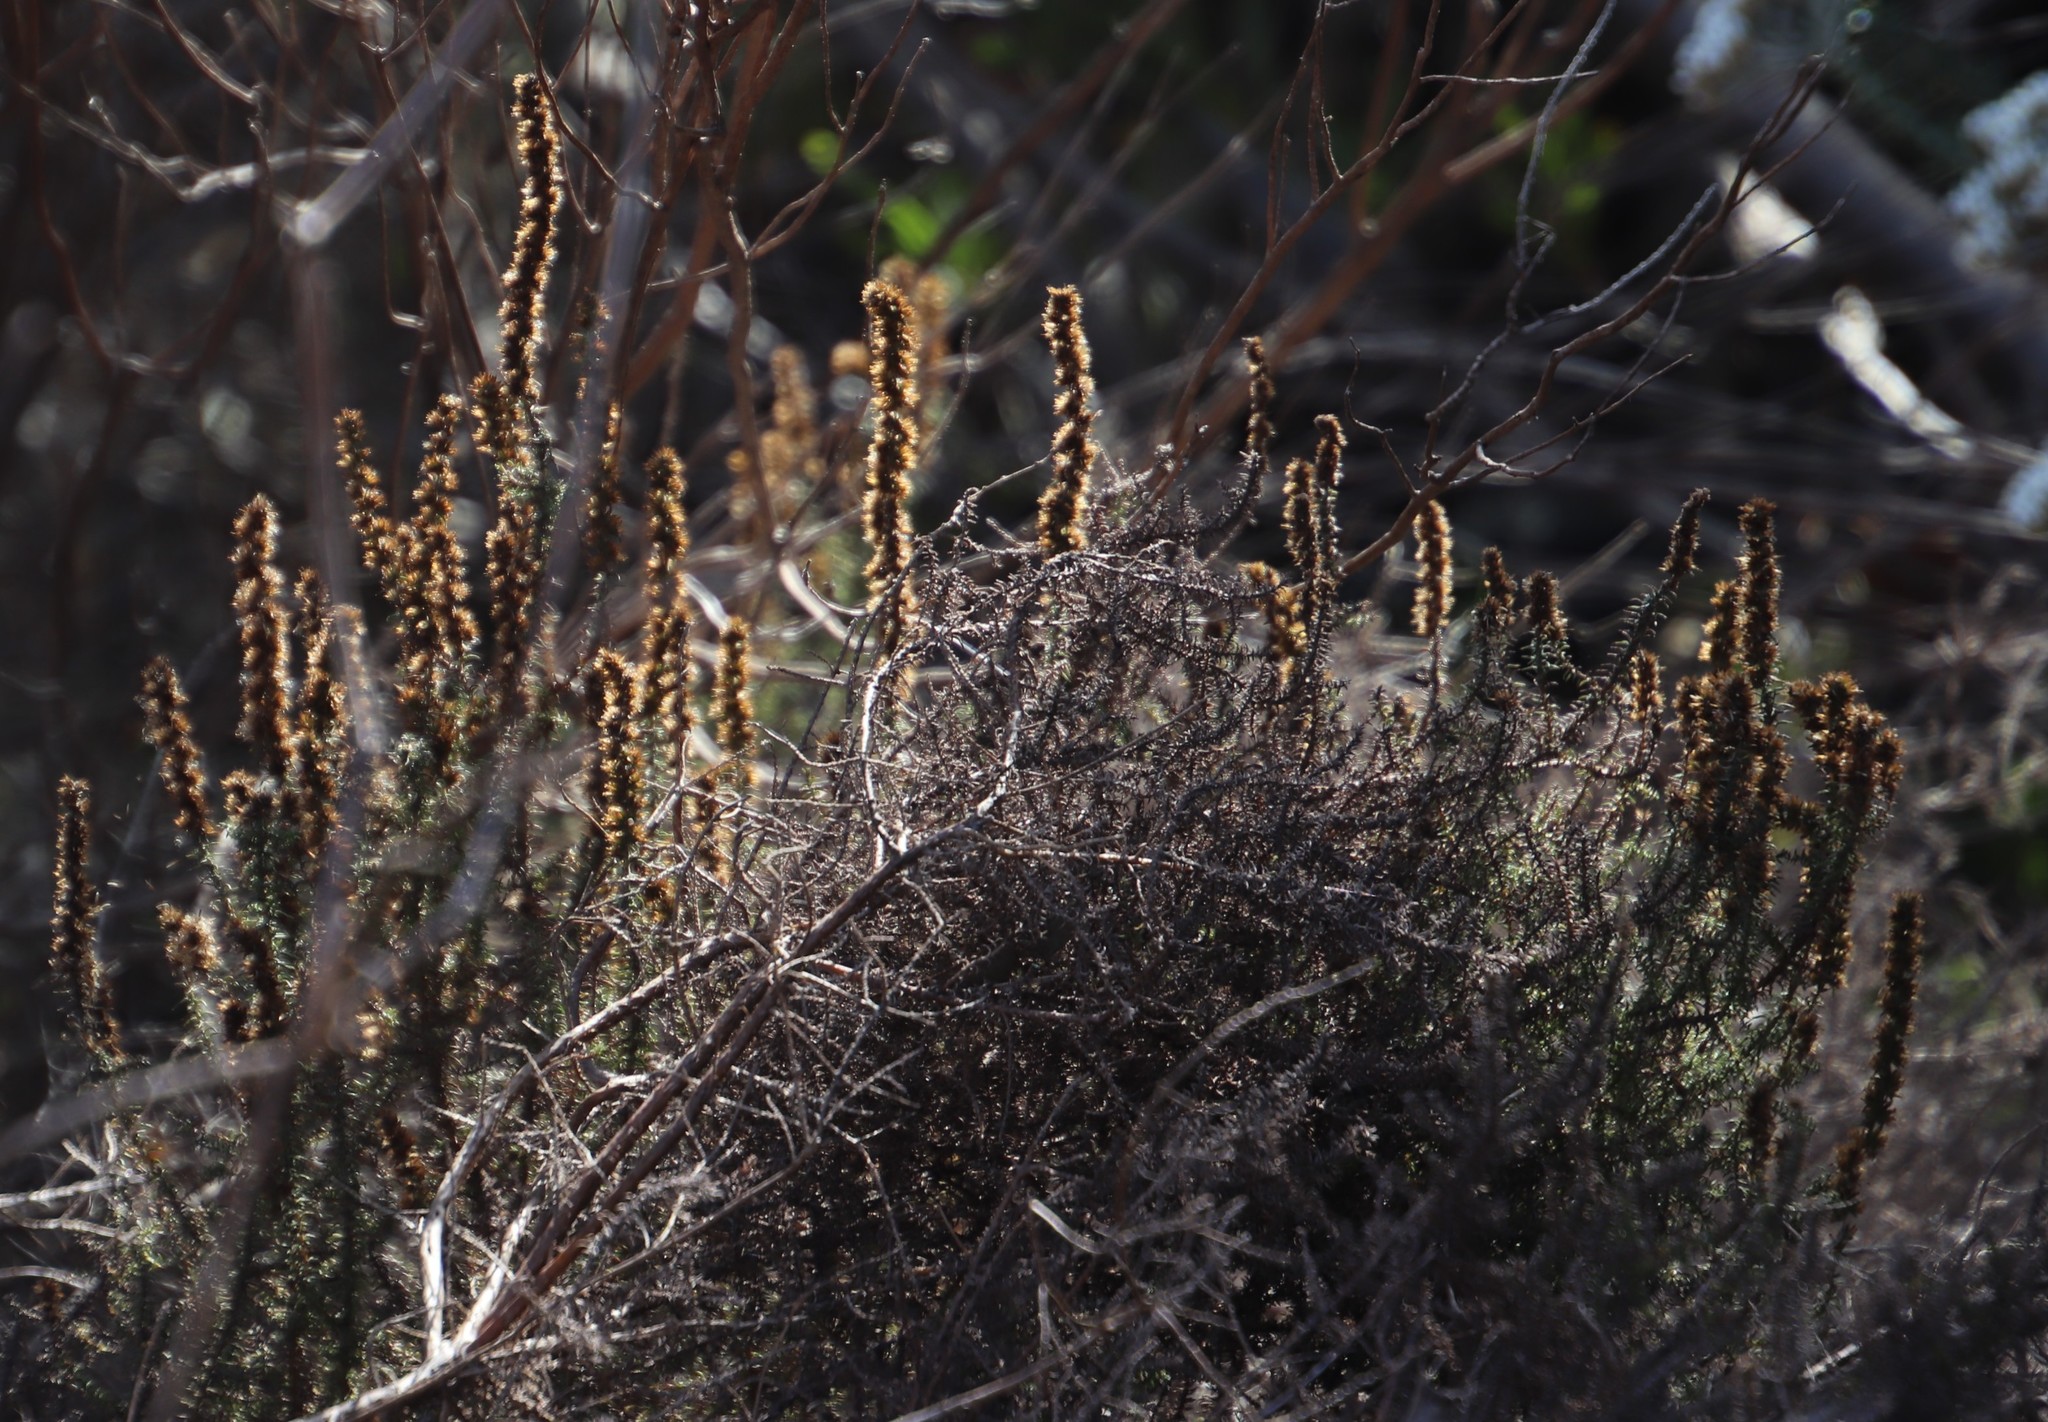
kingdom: Plantae
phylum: Tracheophyta
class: Magnoliopsida
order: Asterales
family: Asteraceae
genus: Seriphium
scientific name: Seriphium cinereum
